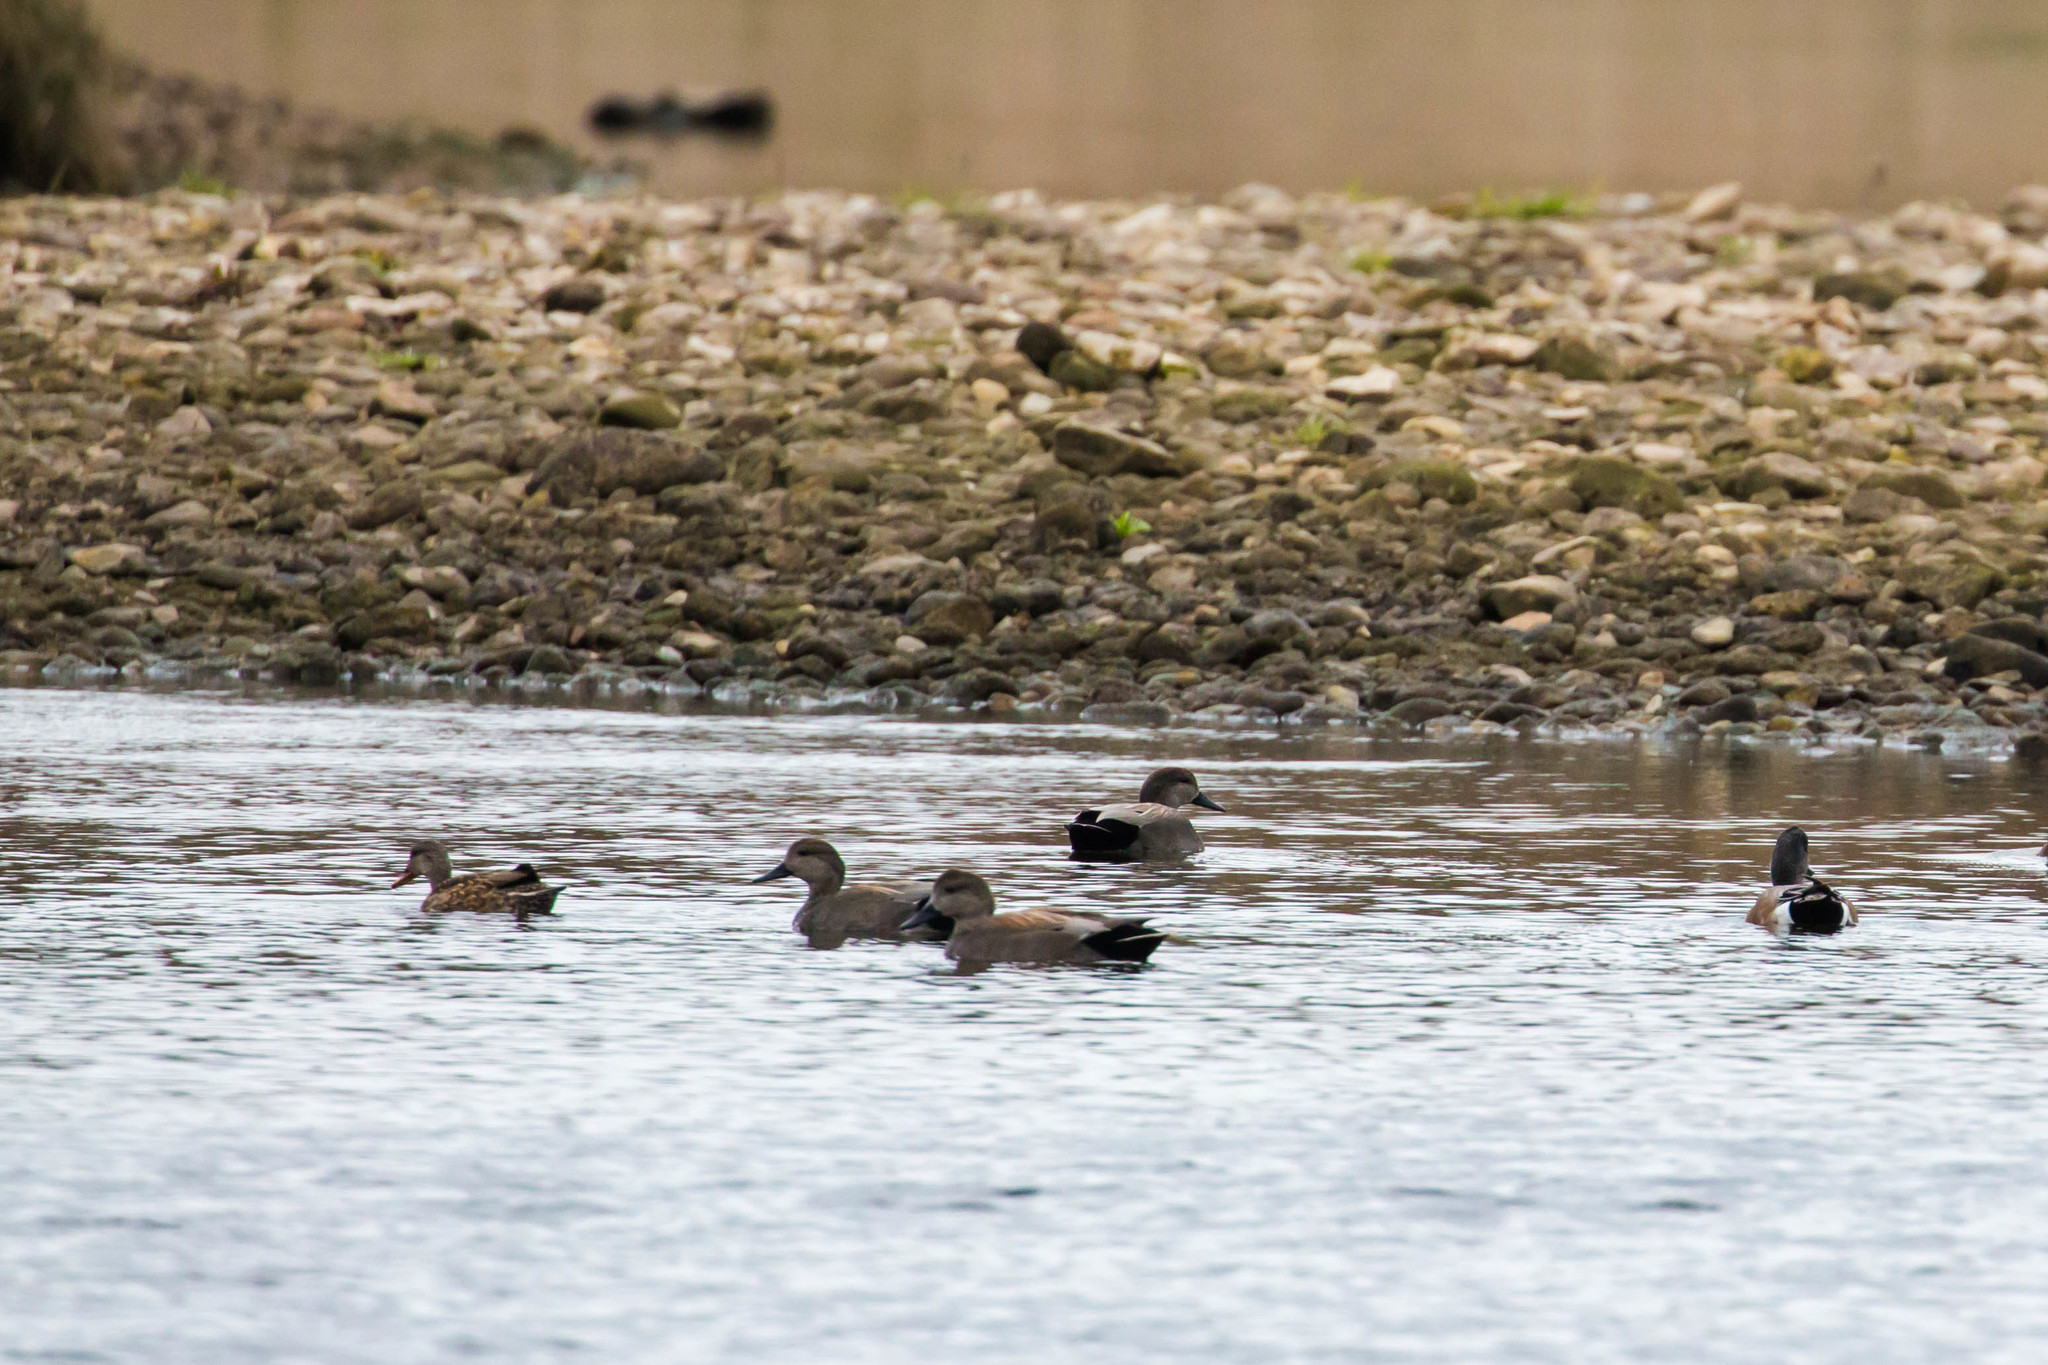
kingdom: Animalia
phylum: Chordata
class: Aves
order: Anseriformes
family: Anatidae
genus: Mareca
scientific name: Mareca strepera
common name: Gadwall
